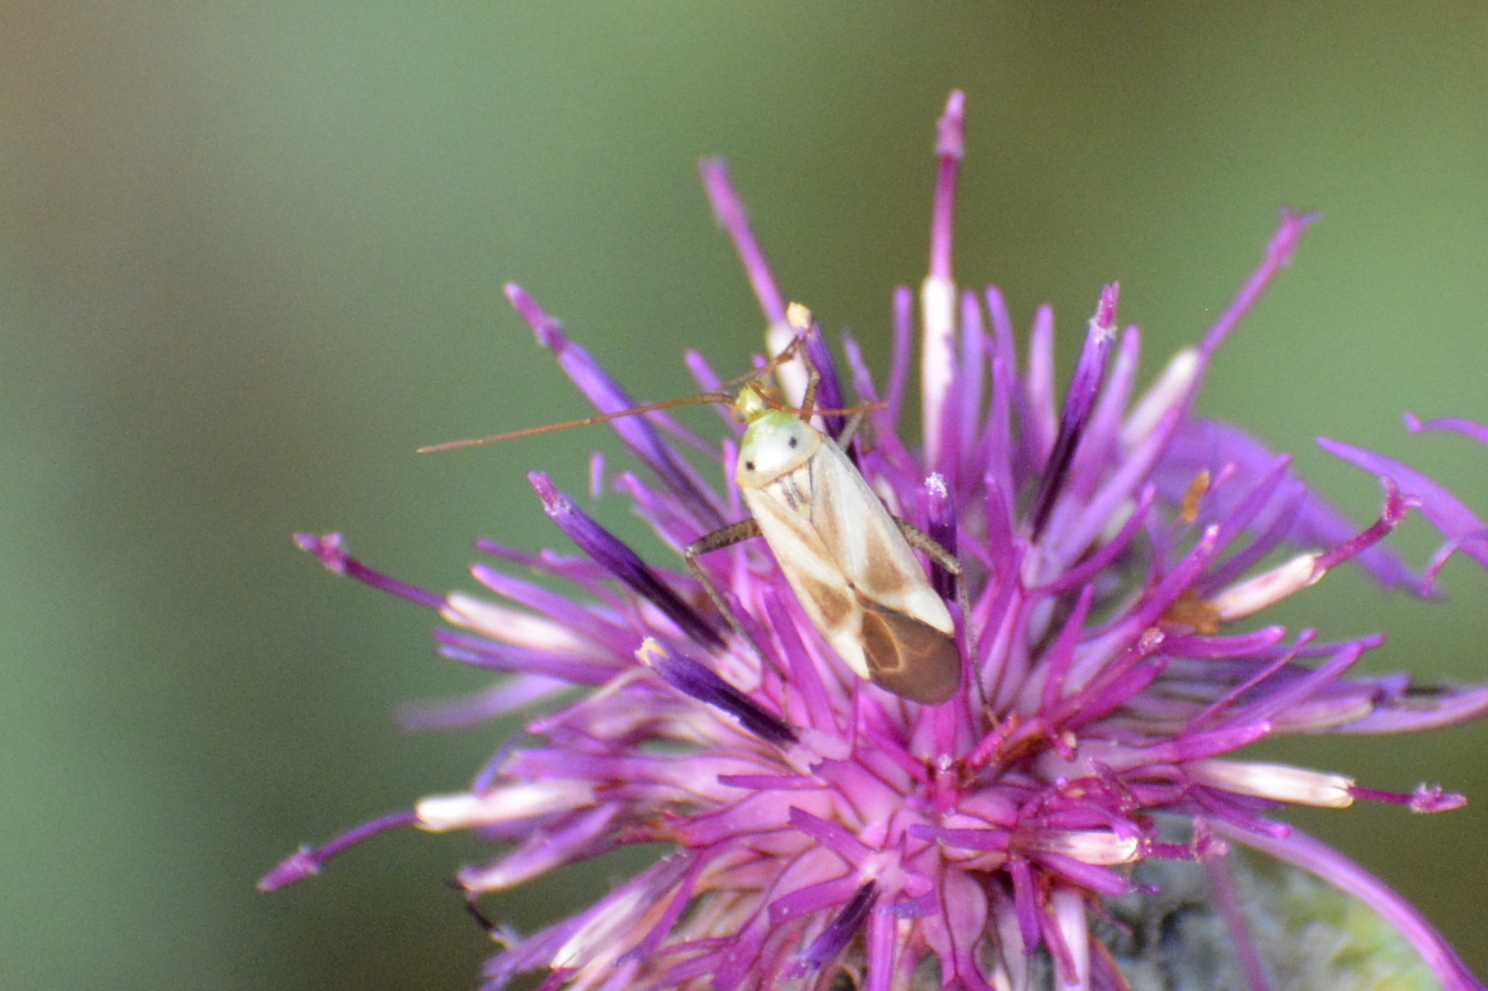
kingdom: Animalia
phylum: Arthropoda
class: Insecta
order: Hemiptera
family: Miridae
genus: Adelphocoris
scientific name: Adelphocoris lineolatus
